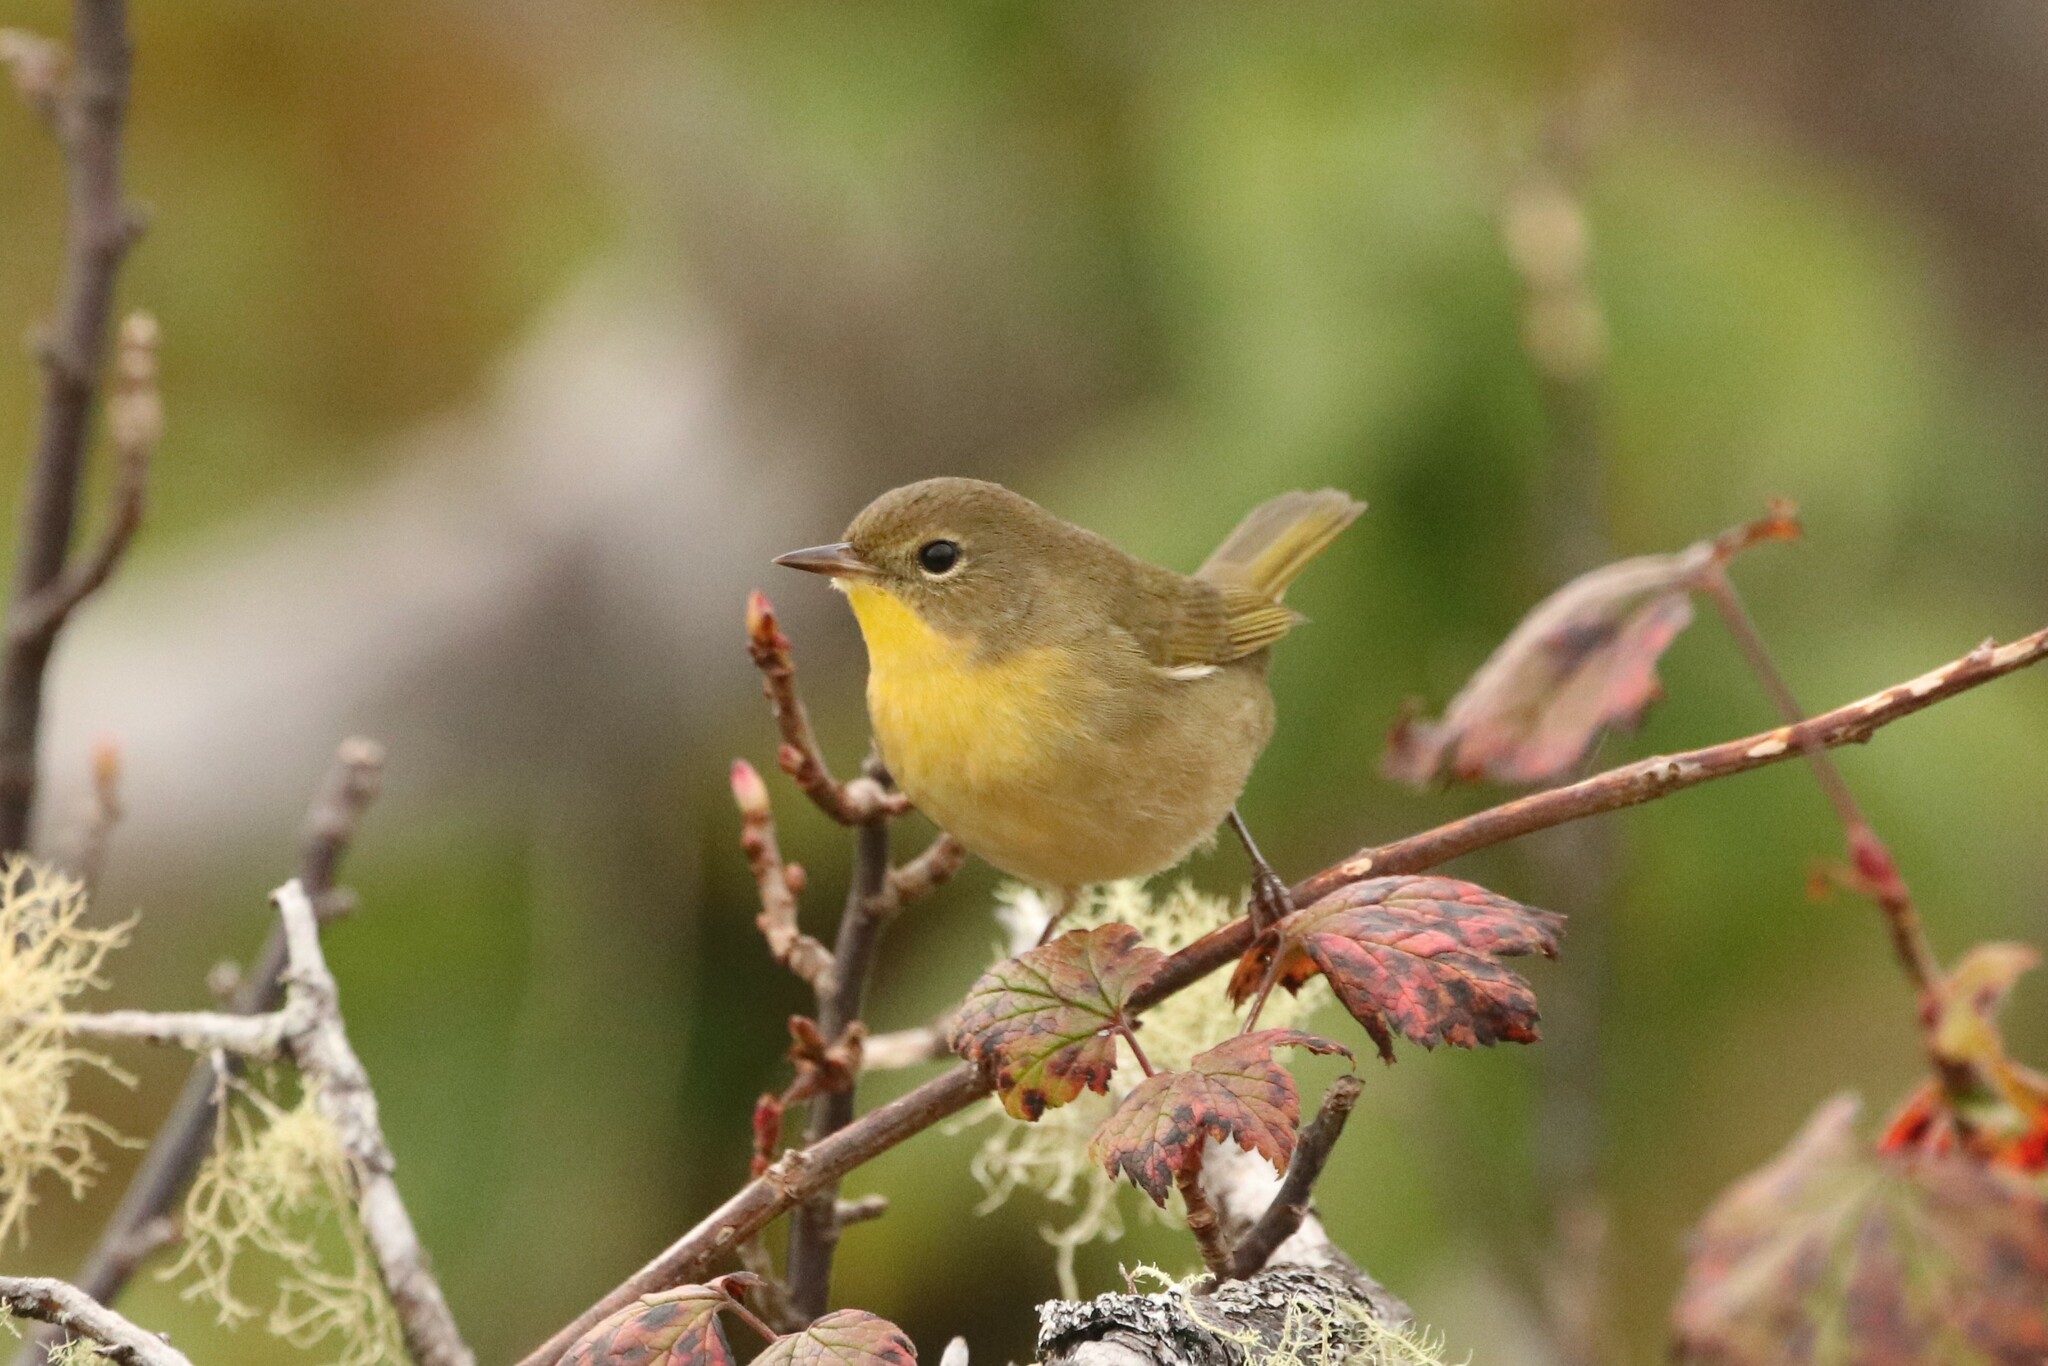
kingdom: Animalia
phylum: Chordata
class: Aves
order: Passeriformes
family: Parulidae
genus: Geothlypis
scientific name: Geothlypis trichas
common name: Common yellowthroat
